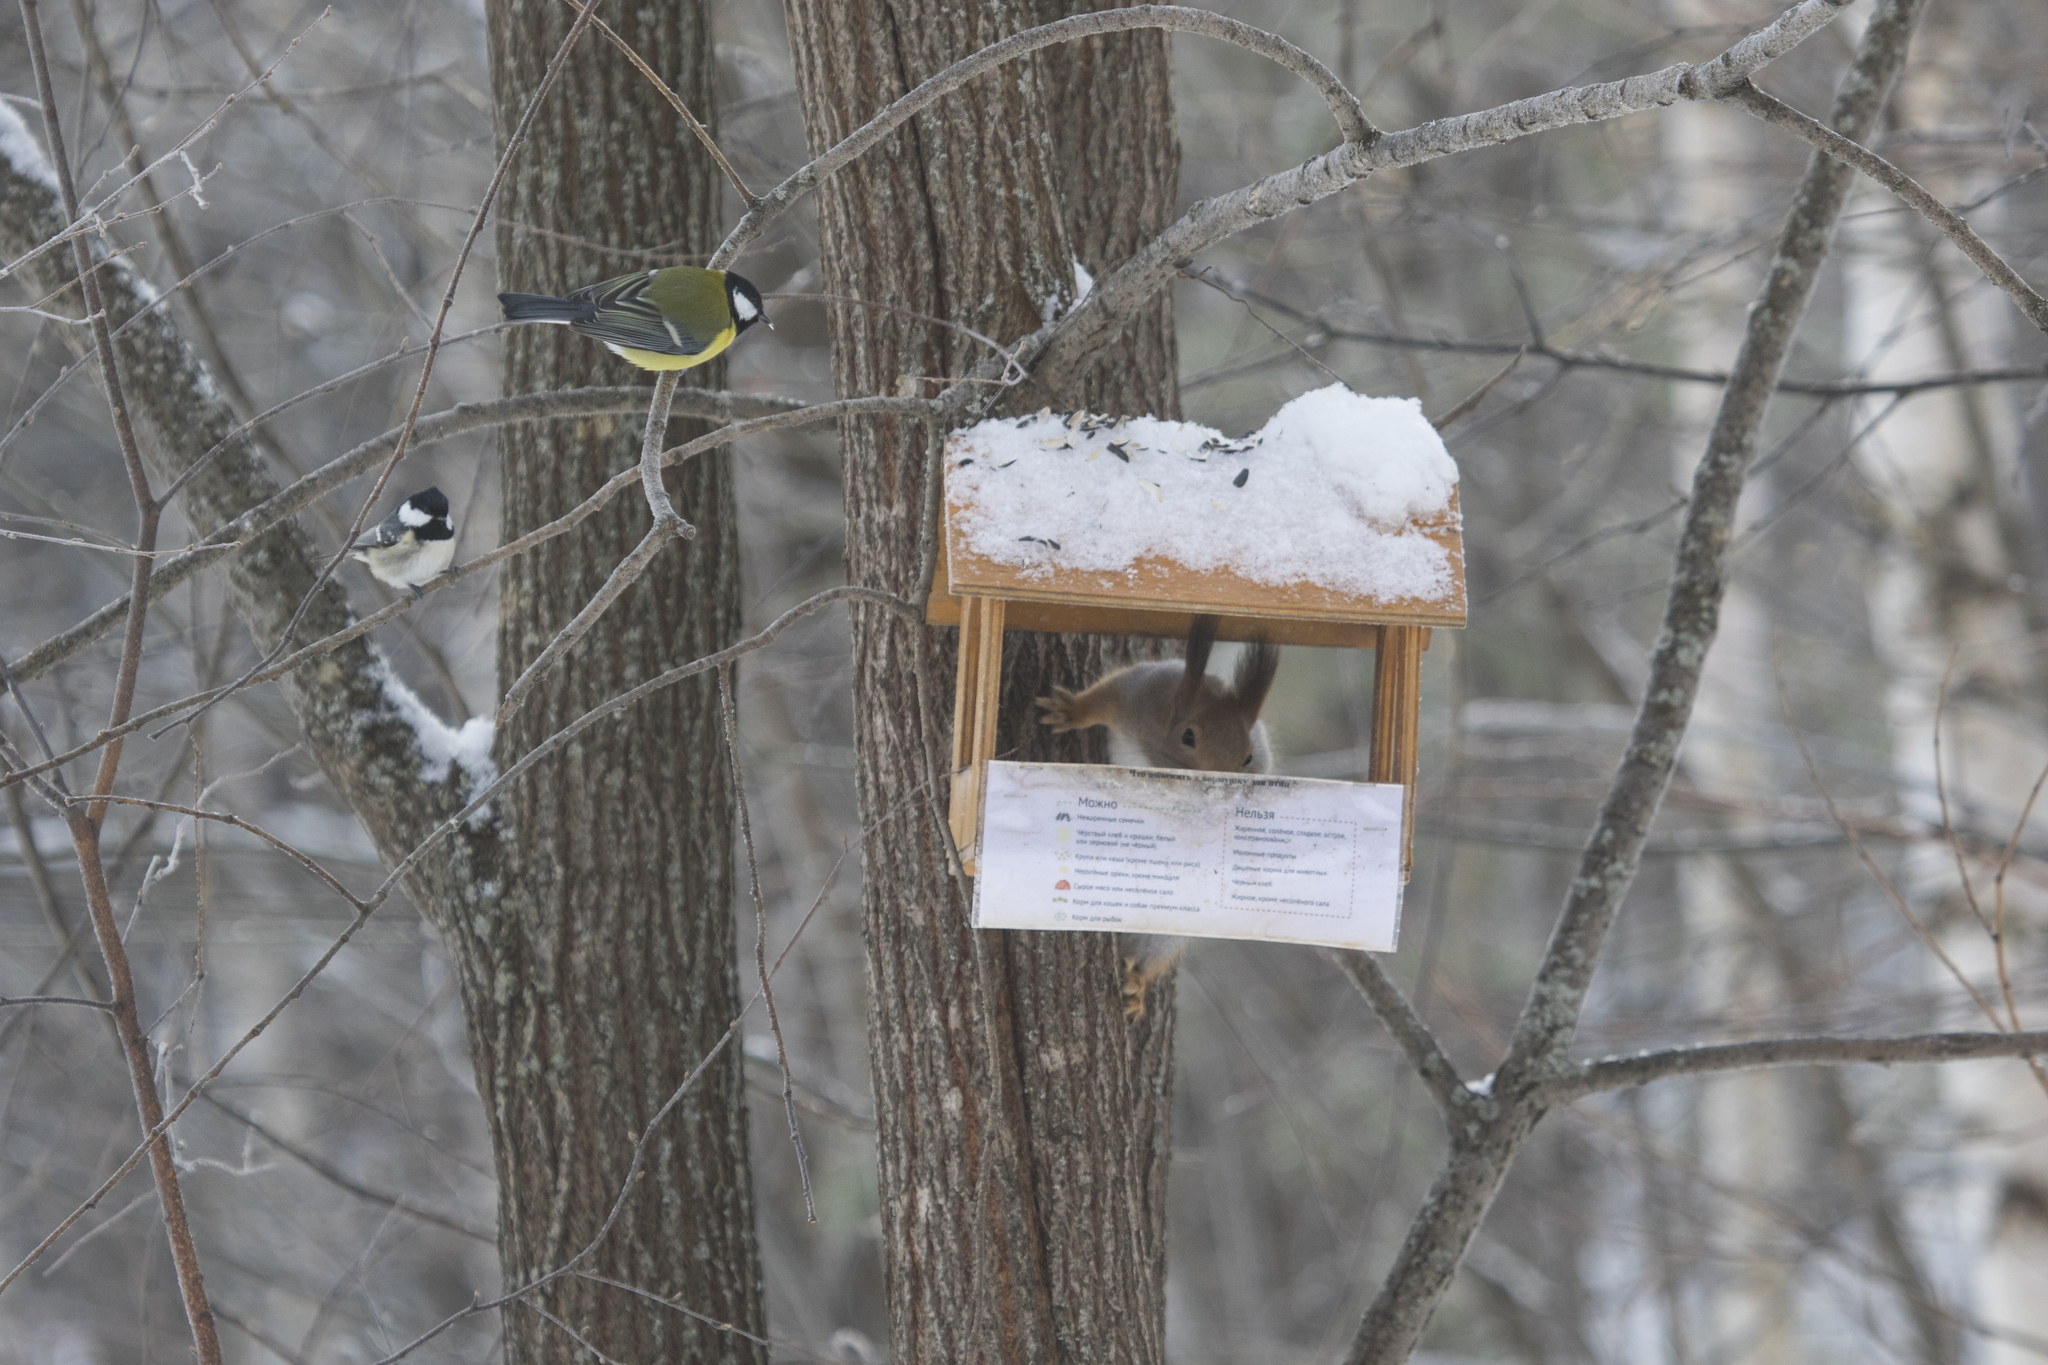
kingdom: Animalia
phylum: Chordata
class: Mammalia
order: Rodentia
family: Sciuridae
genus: Sciurus
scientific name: Sciurus vulgaris
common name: Eurasian red squirrel
